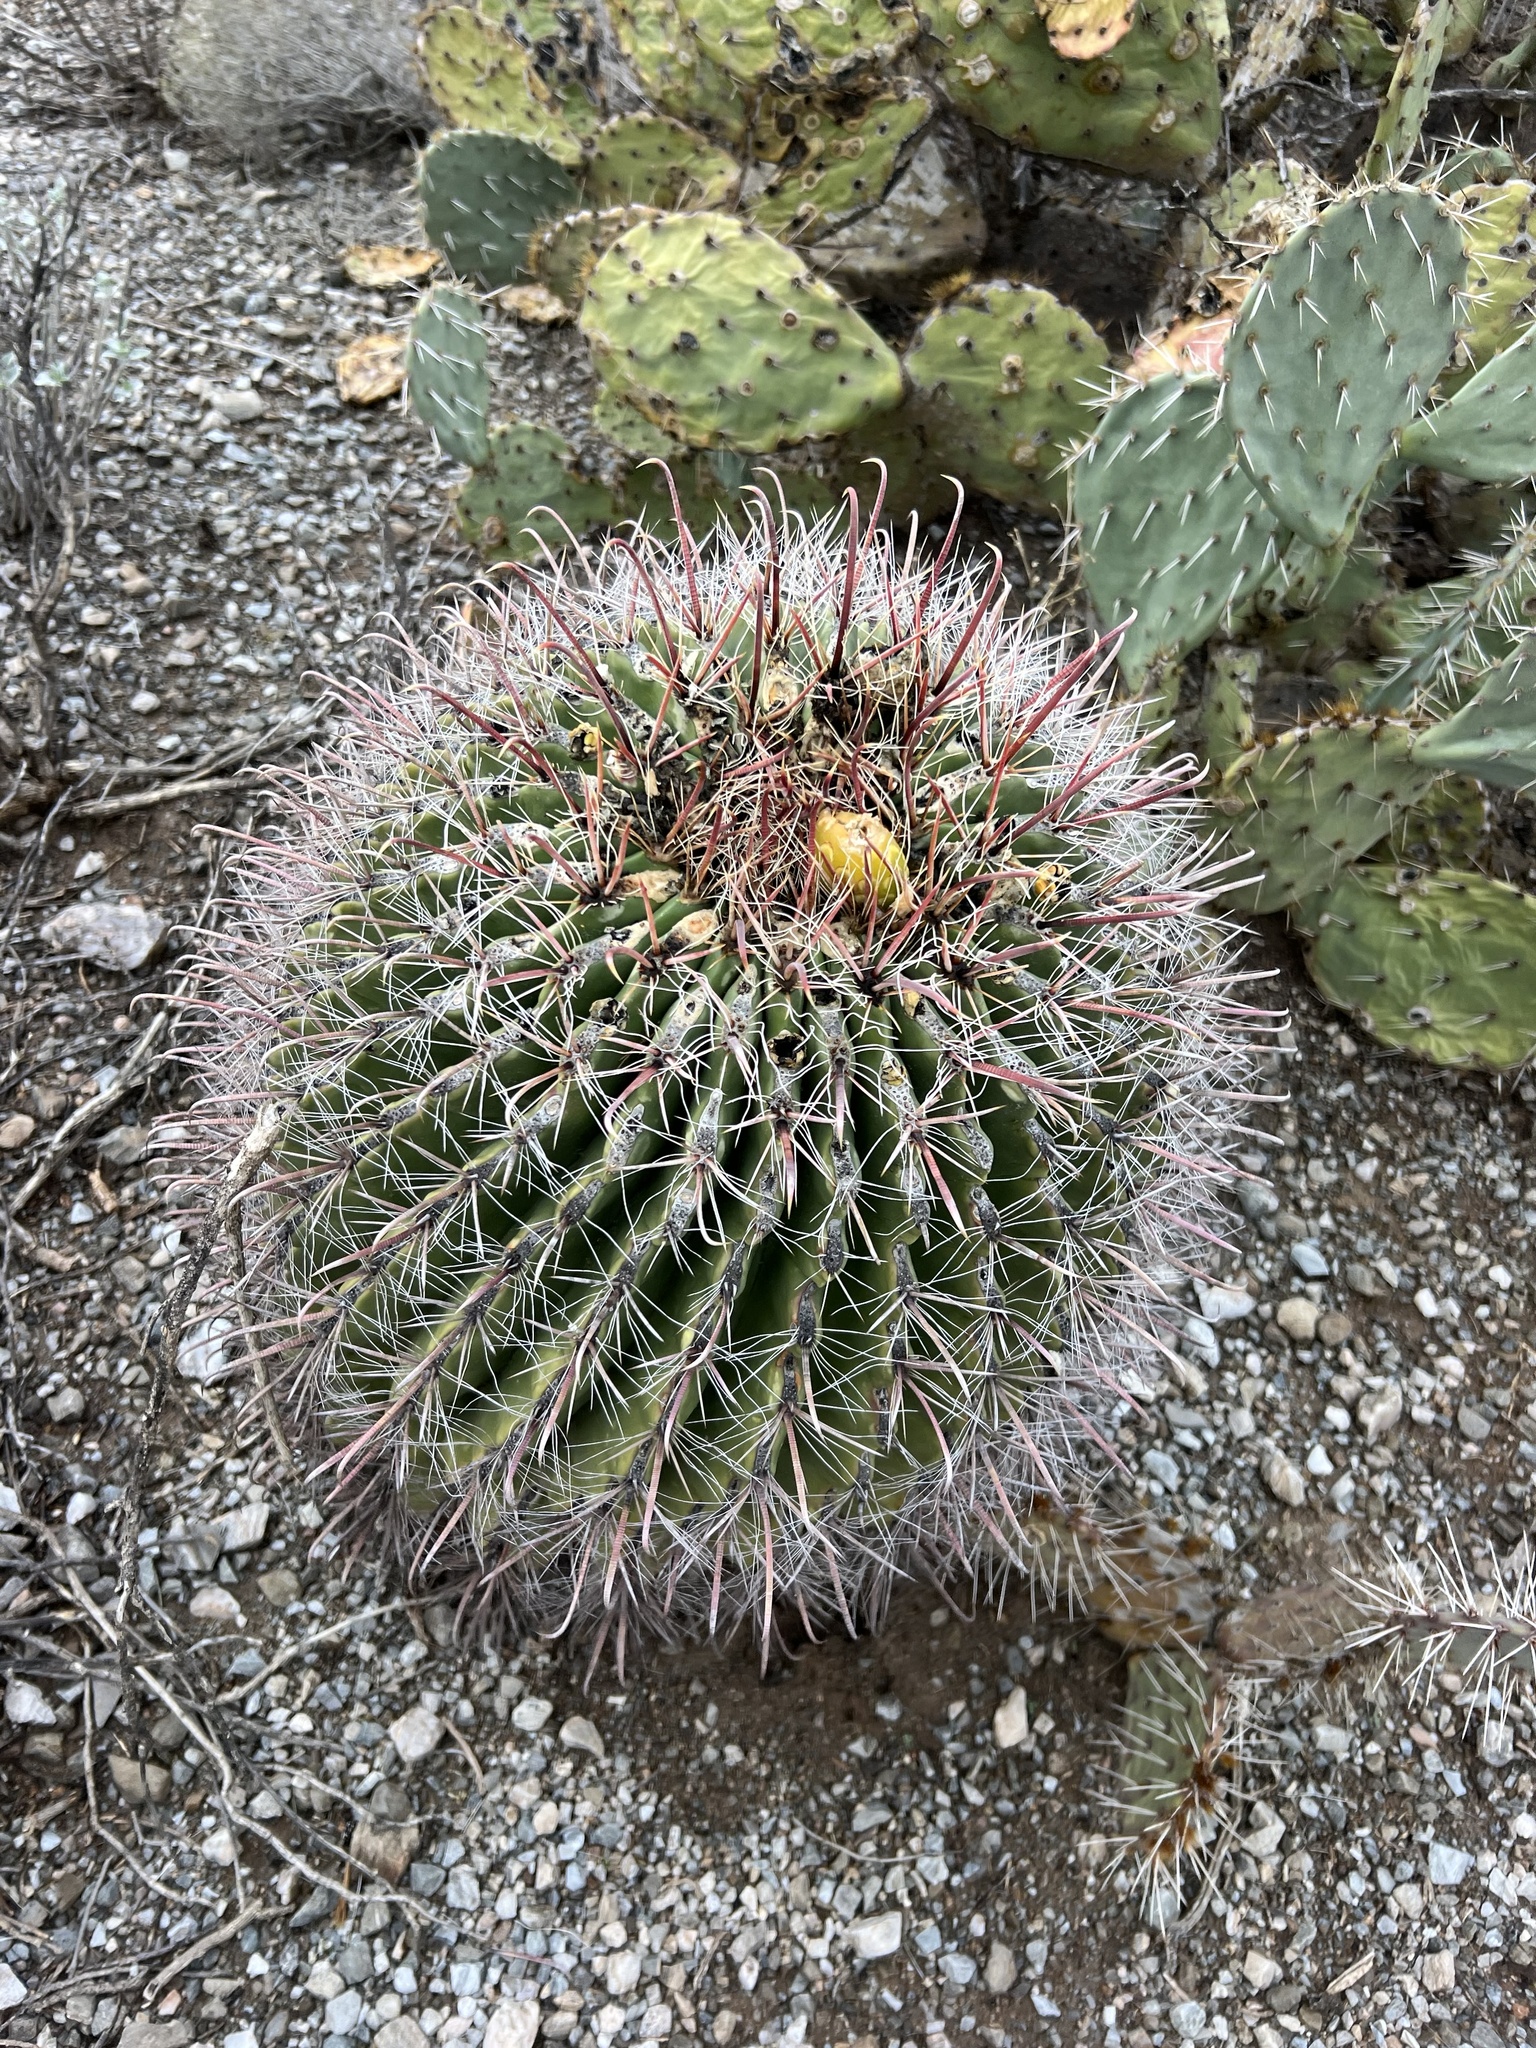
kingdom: Plantae
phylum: Tracheophyta
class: Magnoliopsida
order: Caryophyllales
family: Cactaceae
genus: Ferocactus
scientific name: Ferocactus wislizeni
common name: Candy barrel cactus
